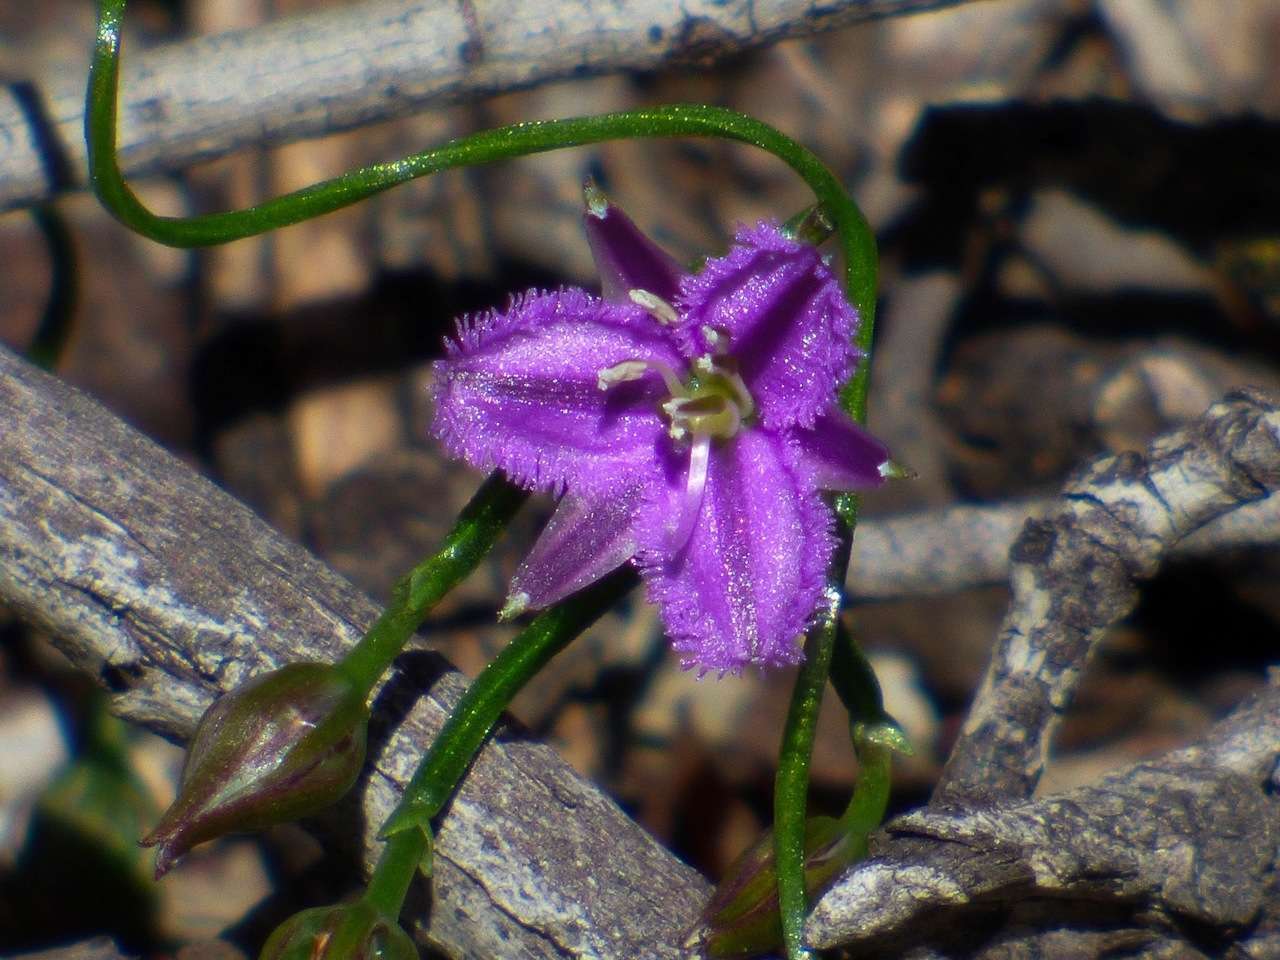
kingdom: Plantae
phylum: Tracheophyta
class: Liliopsida
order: Asparagales
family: Asparagaceae
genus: Thysanotus
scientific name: Thysanotus patersonii
